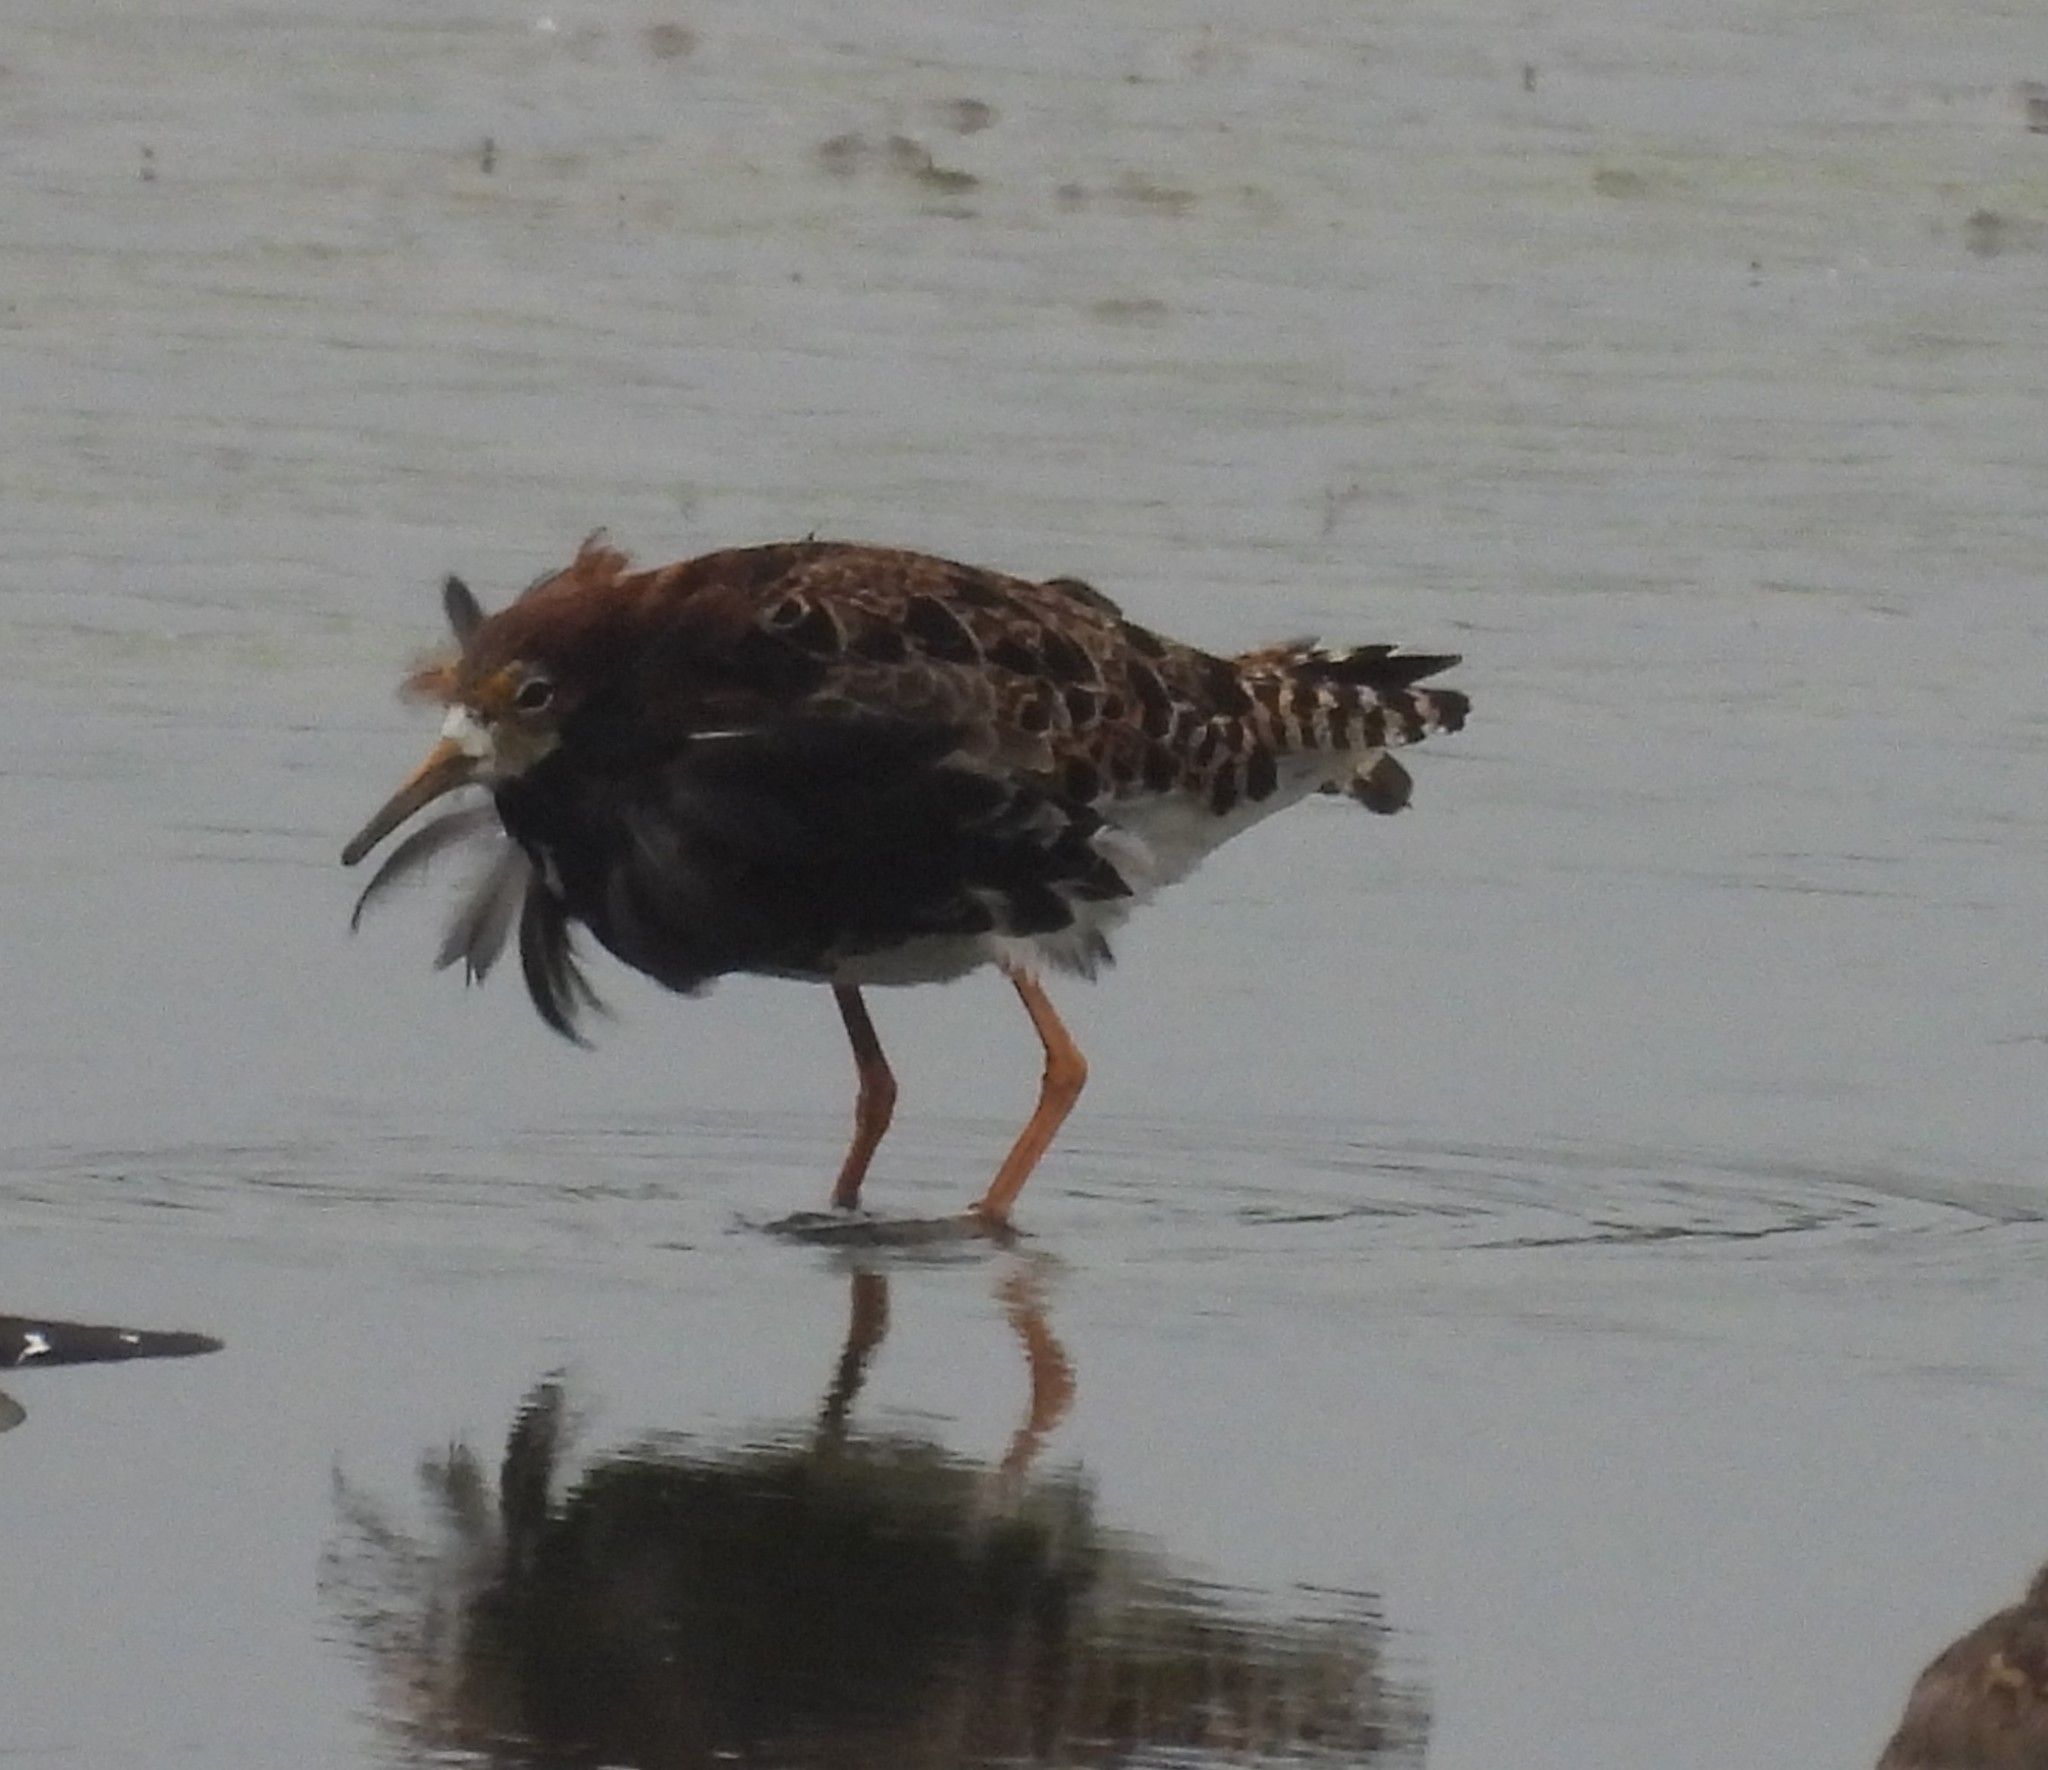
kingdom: Animalia
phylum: Chordata
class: Aves
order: Charadriiformes
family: Scolopacidae
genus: Calidris
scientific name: Calidris pugnax
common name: Ruff
